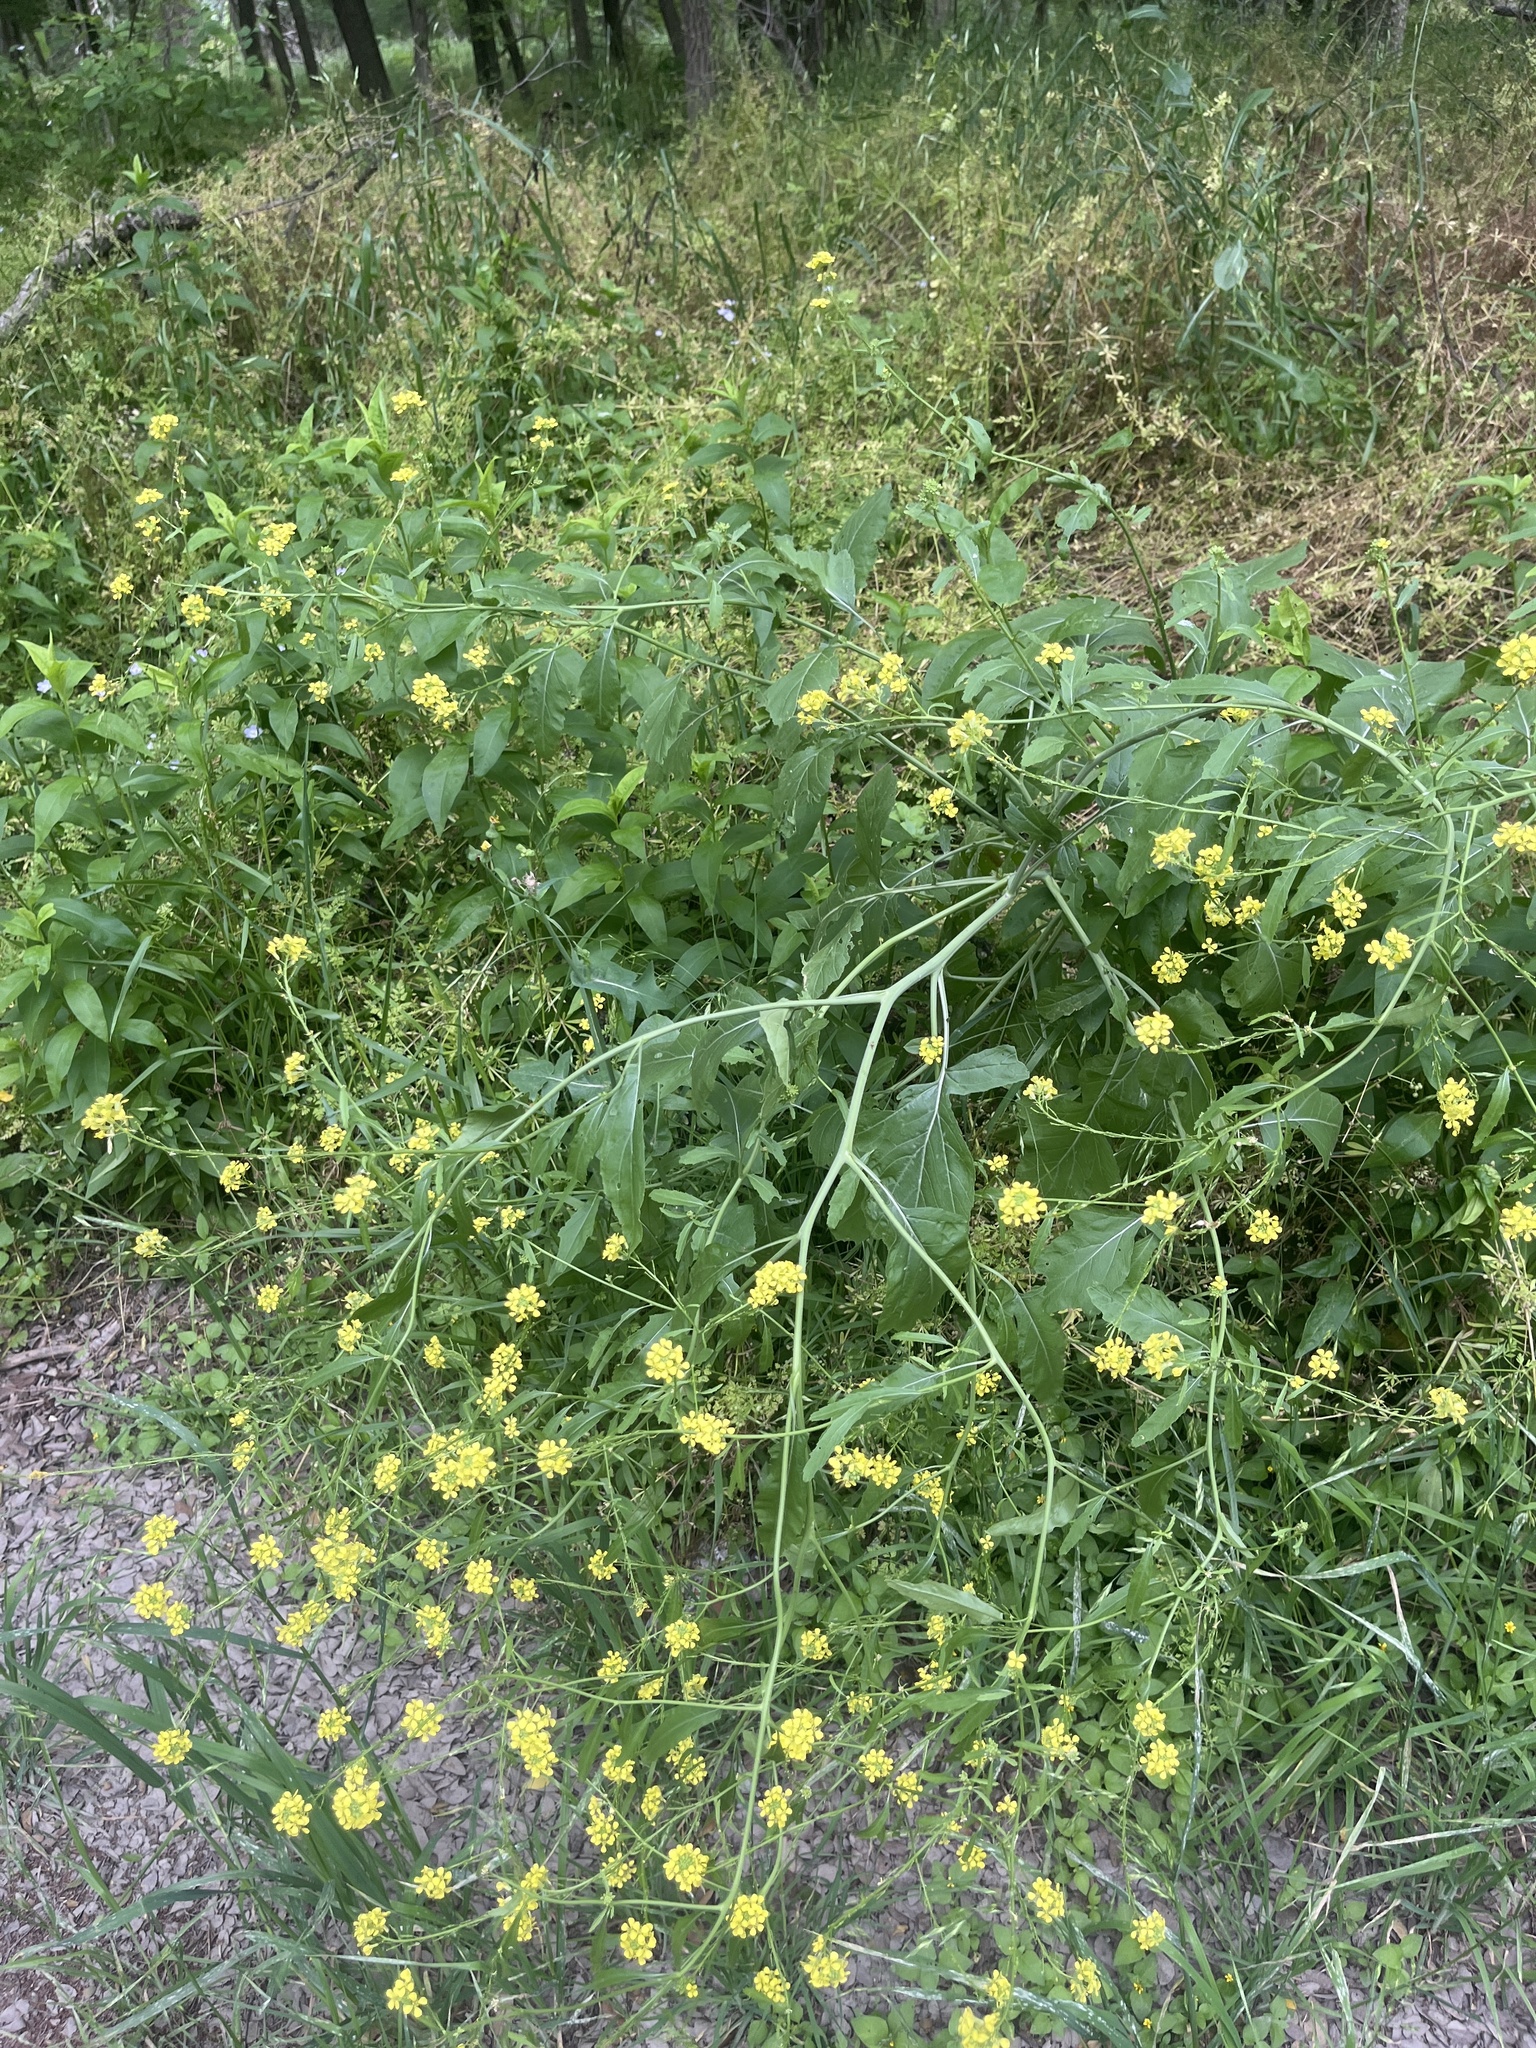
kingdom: Plantae
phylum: Tracheophyta
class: Magnoliopsida
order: Brassicales
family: Brassicaceae
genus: Rapistrum
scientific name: Rapistrum rugosum
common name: Annual bastardcabbage
